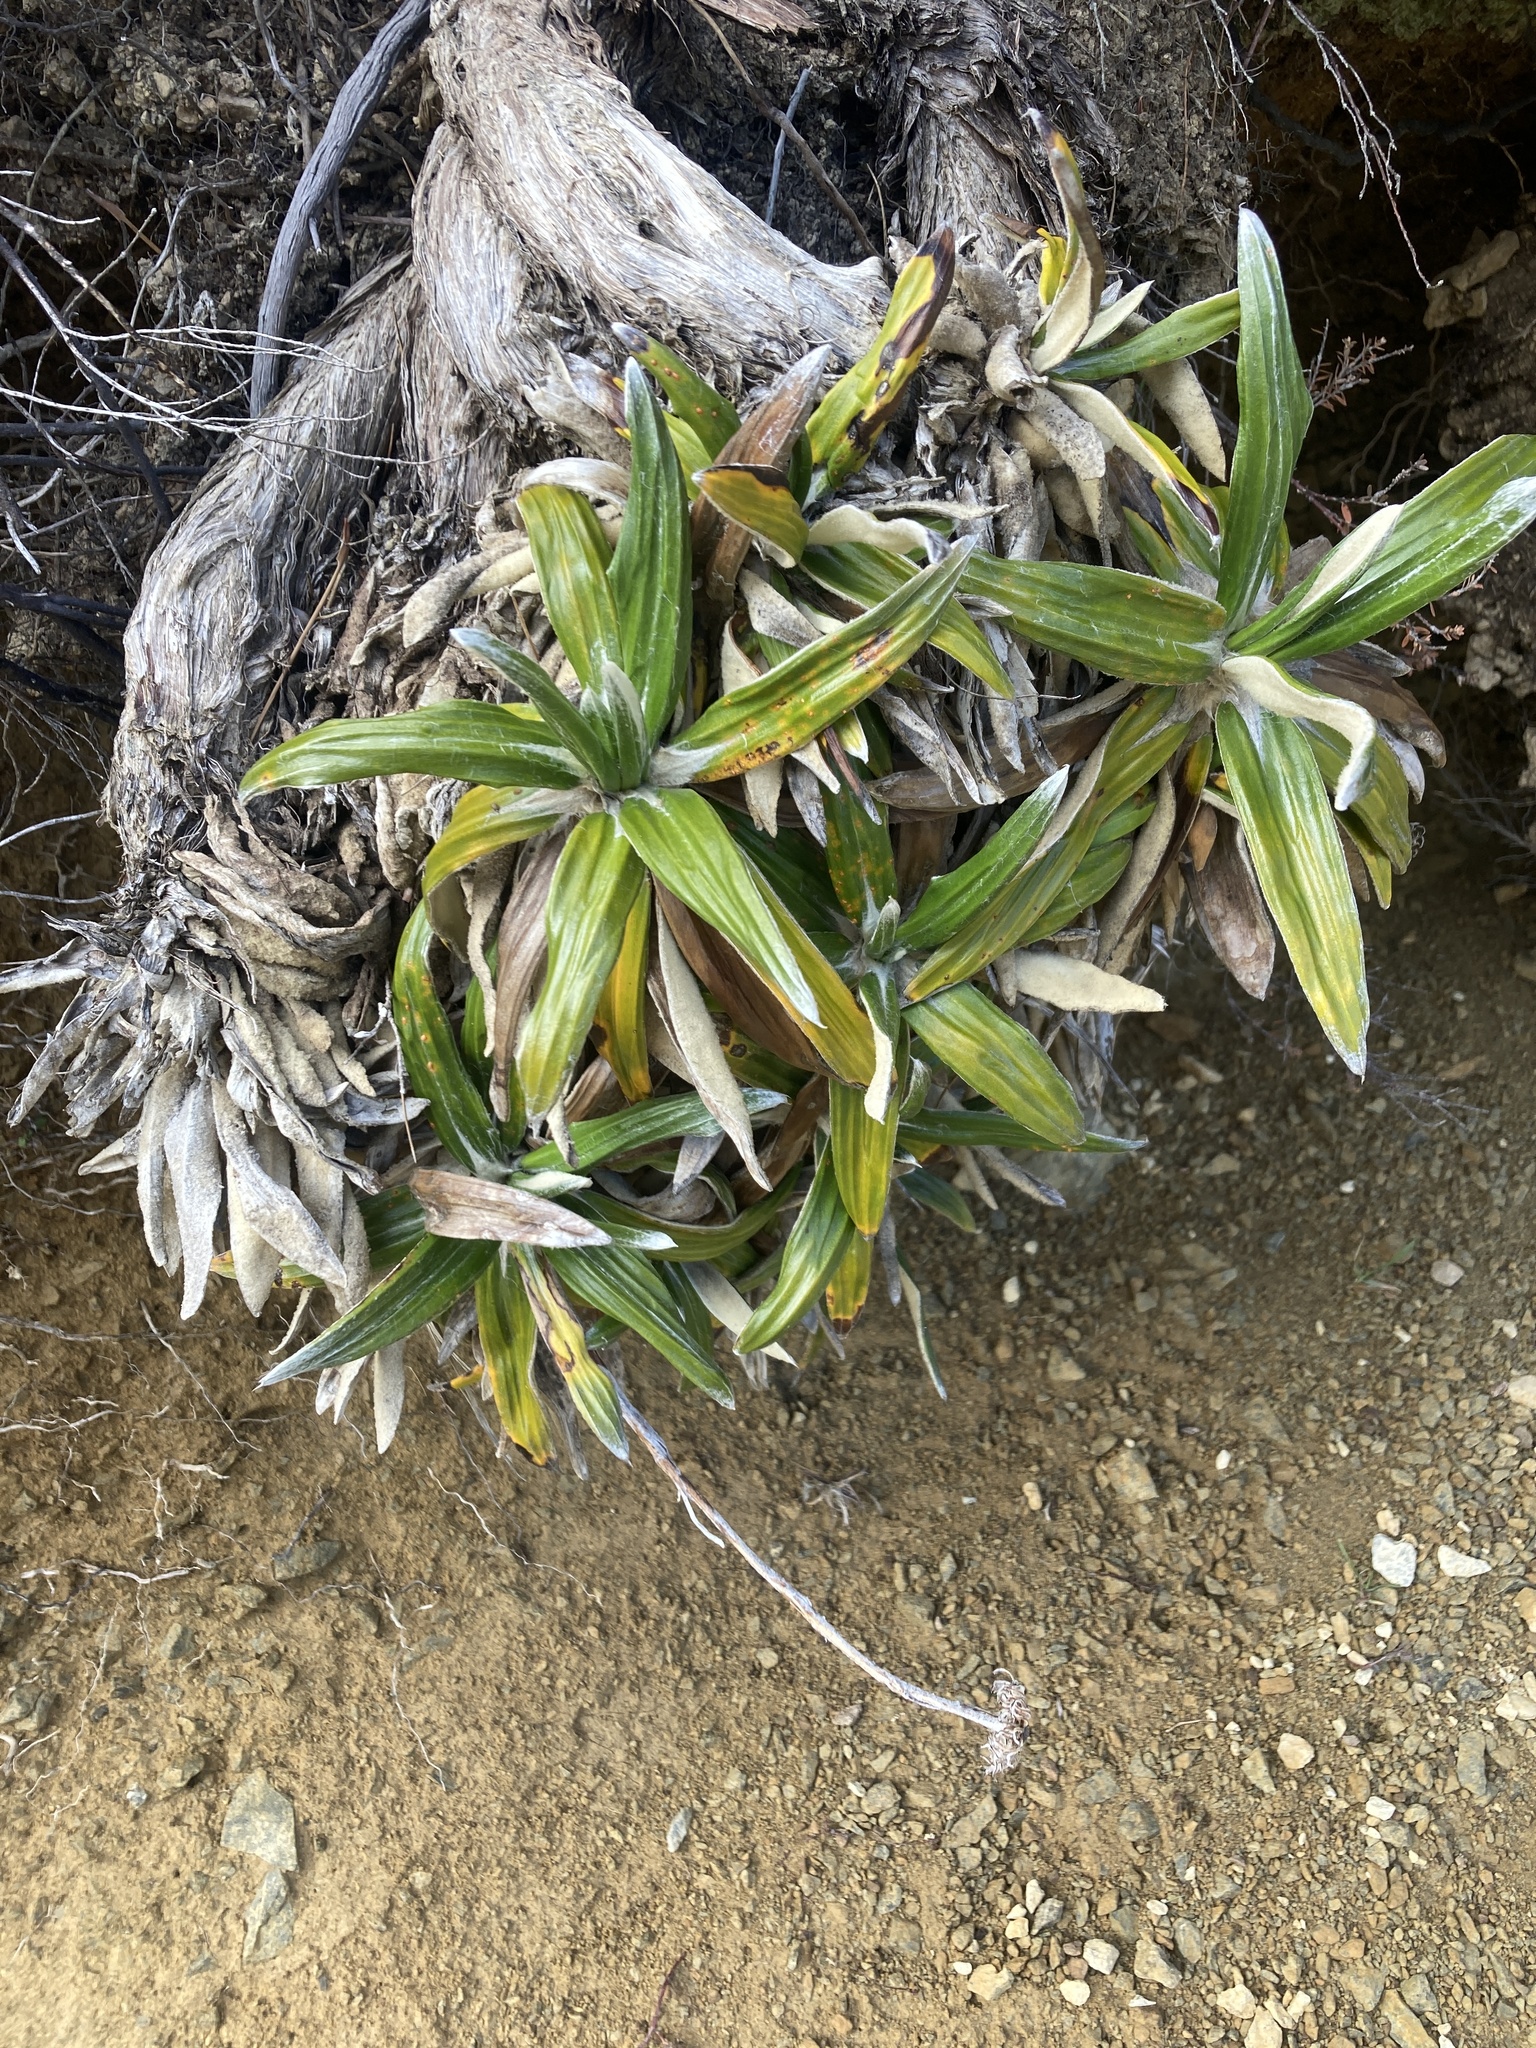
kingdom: Plantae
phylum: Tracheophyta
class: Magnoliopsida
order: Asterales
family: Asteraceae
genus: Celmisia
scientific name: Celmisia spectabilis
